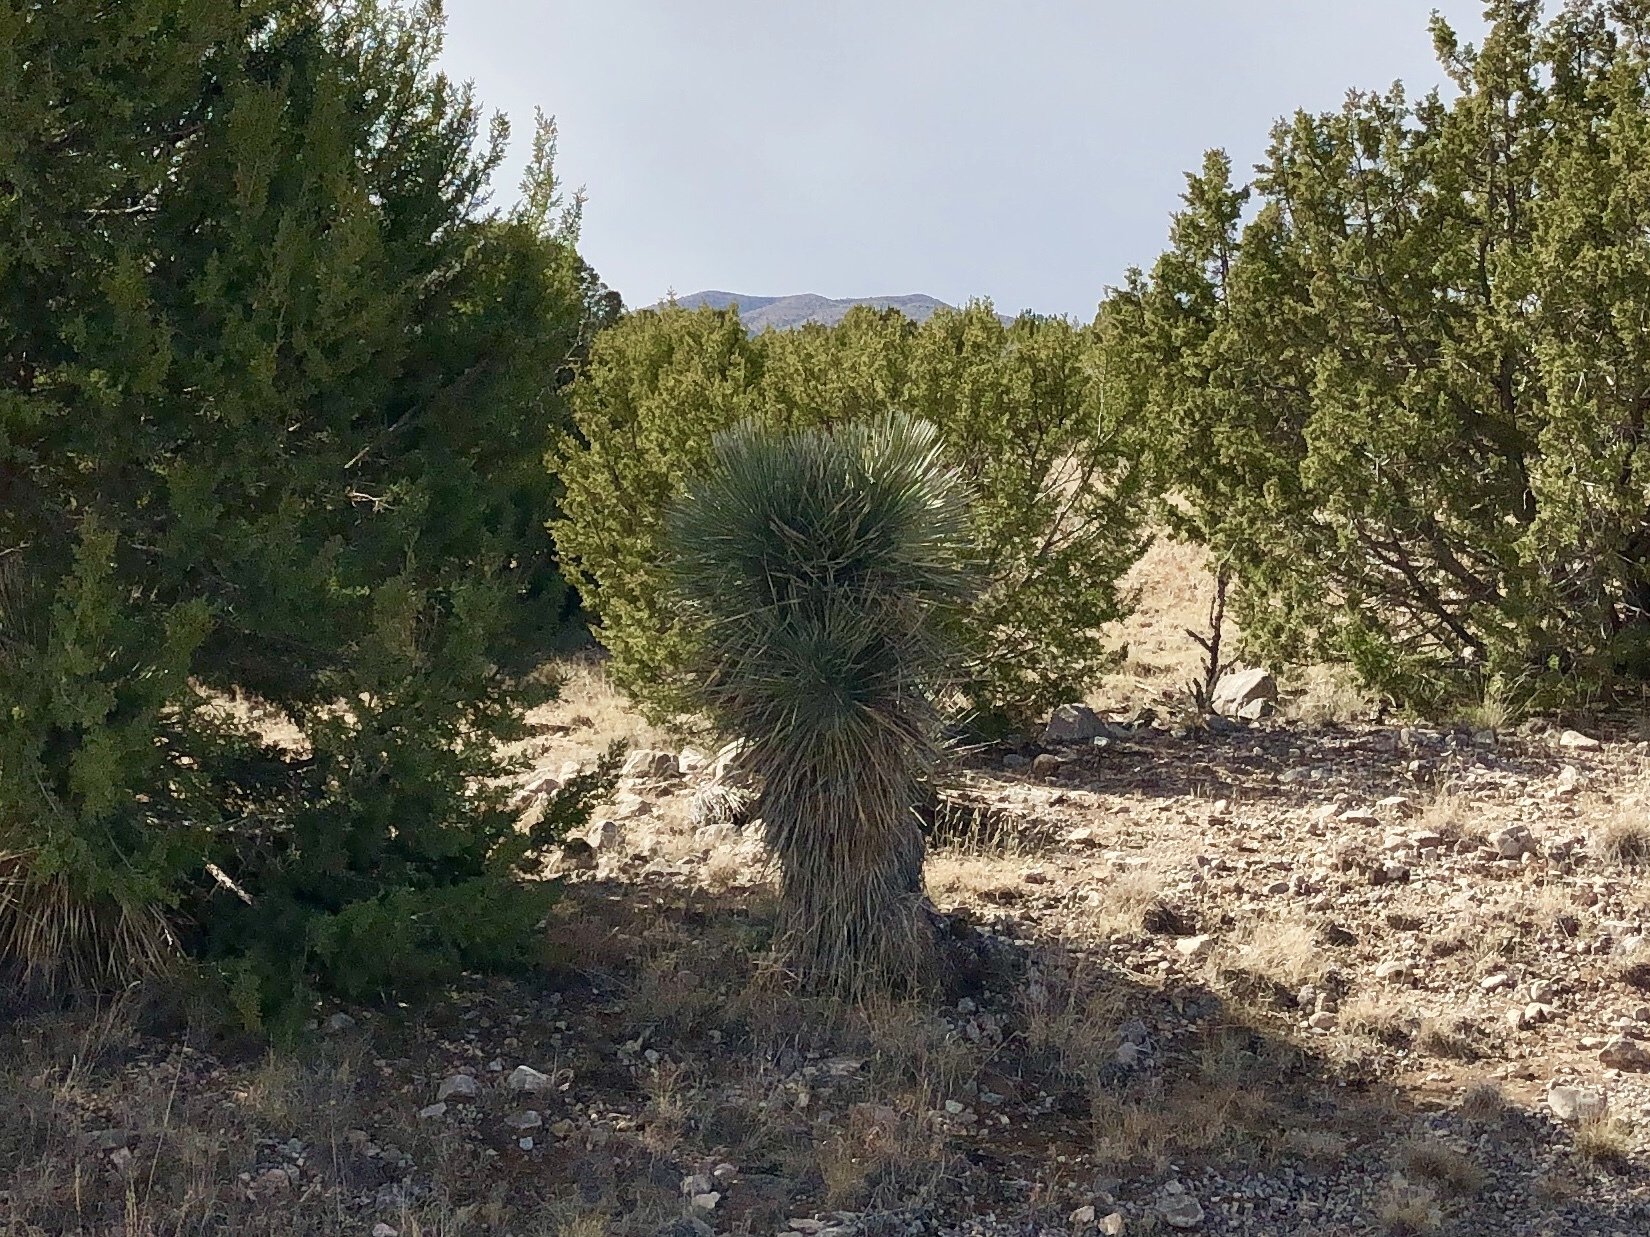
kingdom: Plantae
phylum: Tracheophyta
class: Liliopsida
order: Asparagales
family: Asparagaceae
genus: Yucca
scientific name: Yucca elata
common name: Palmella
